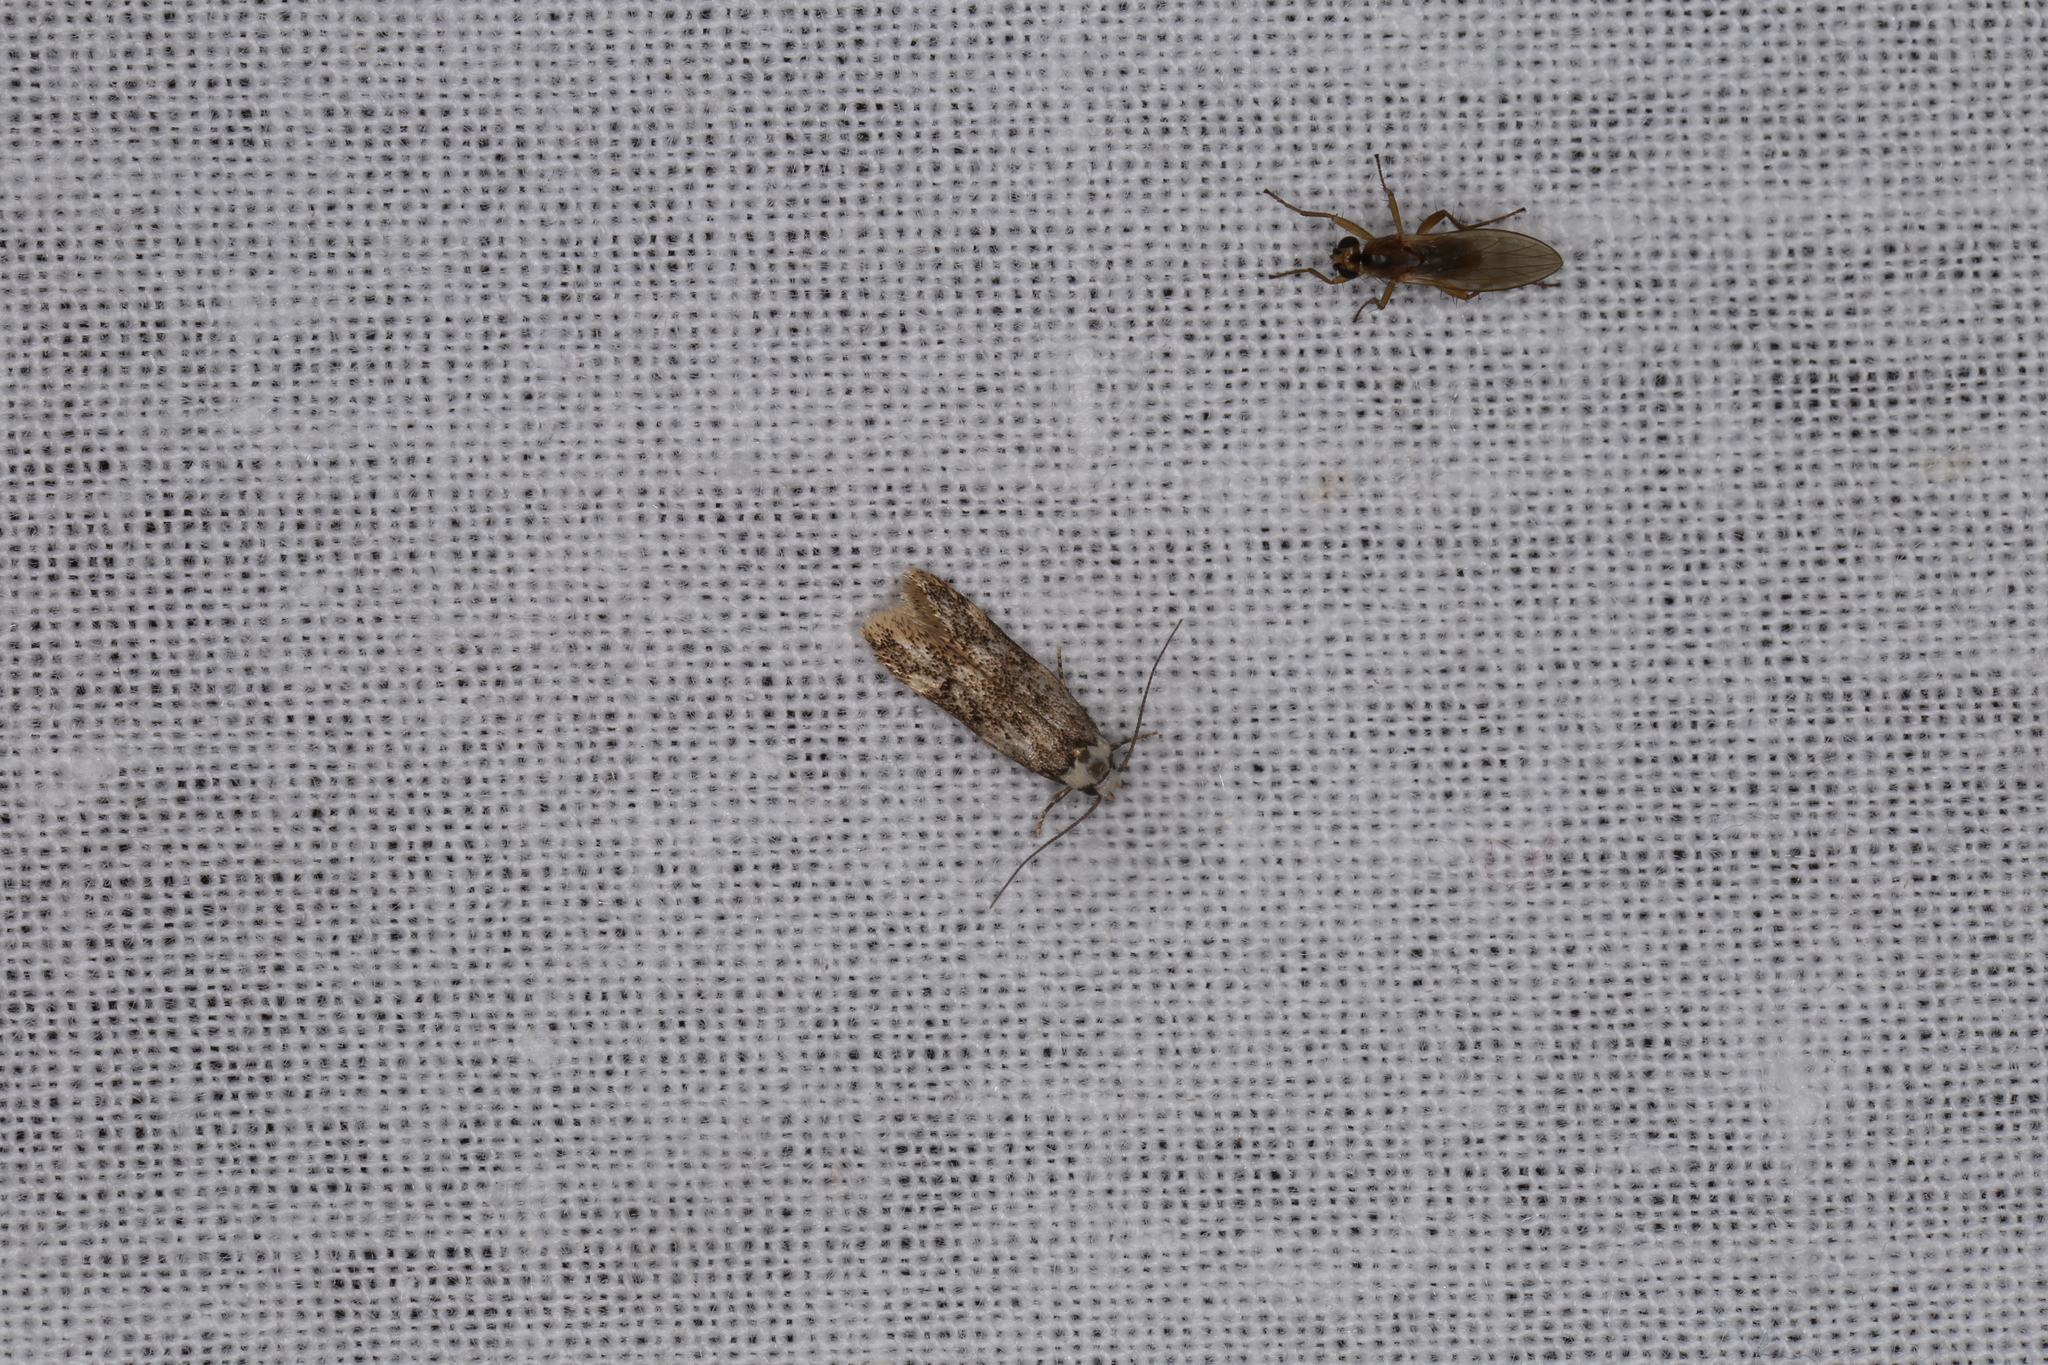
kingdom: Animalia
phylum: Arthropoda
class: Insecta
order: Lepidoptera
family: Oecophoridae
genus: Endrosis
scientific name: Endrosis sarcitrella
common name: White-shouldered house moth
